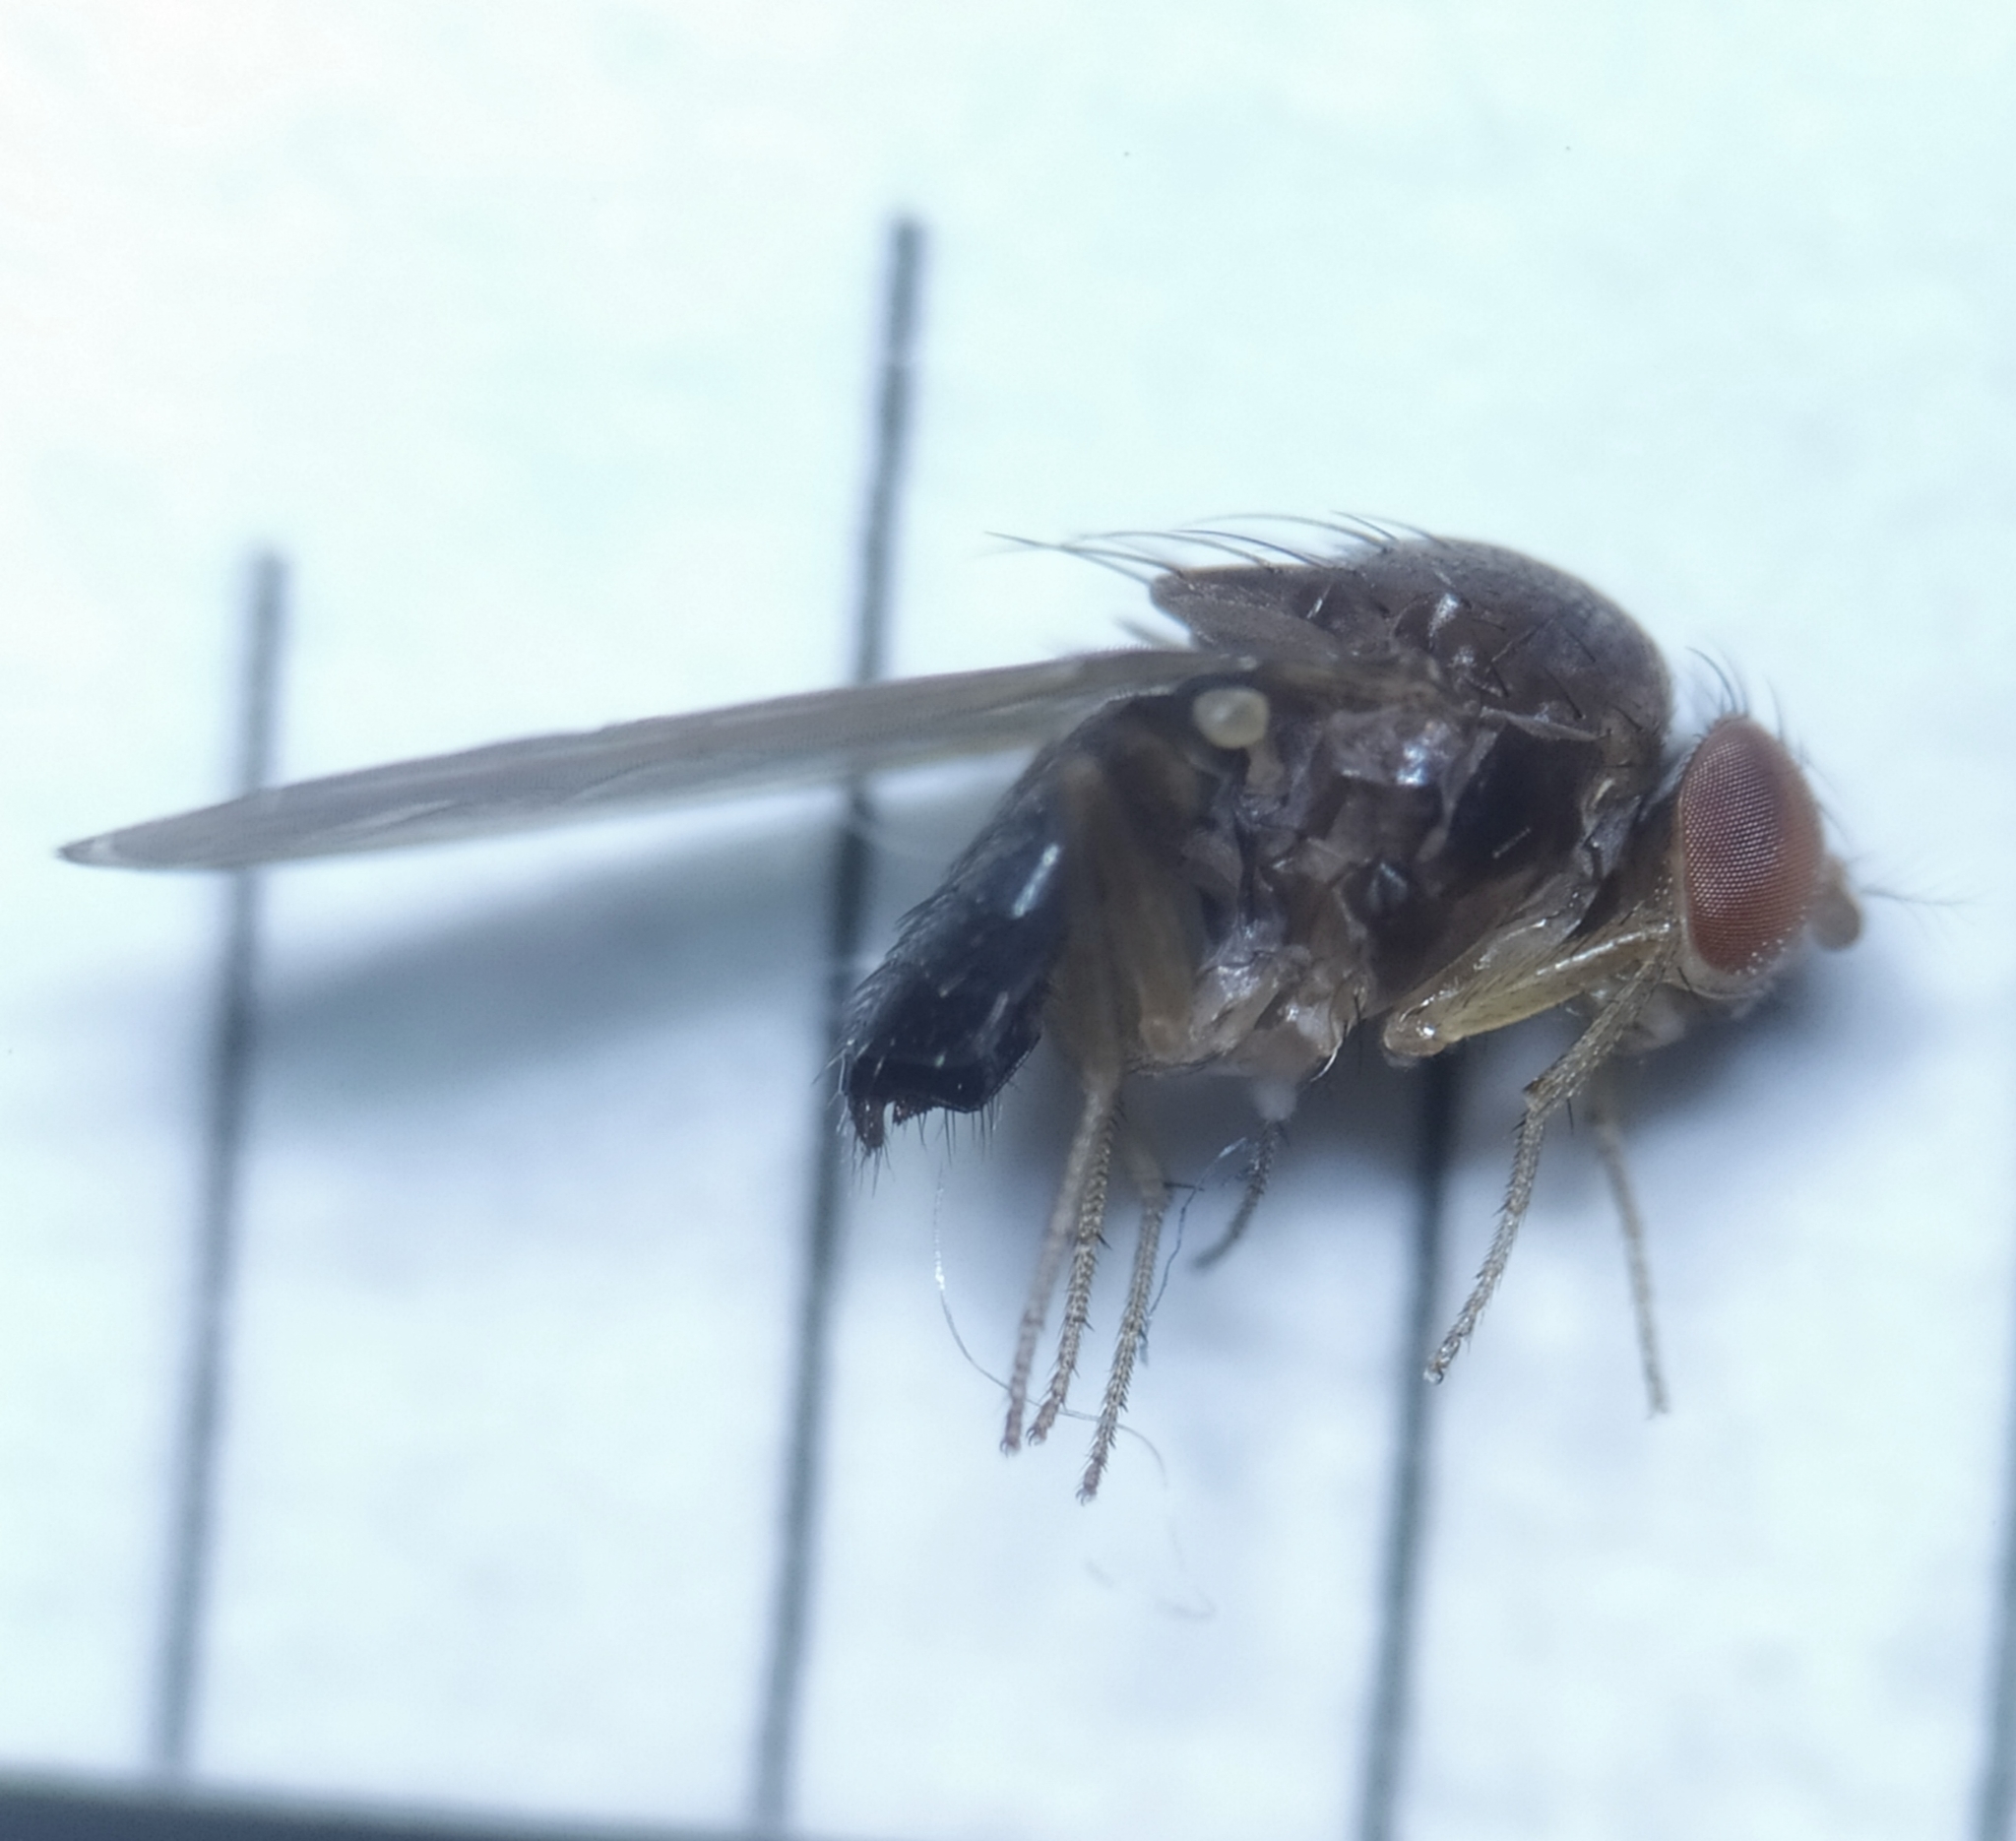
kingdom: Animalia
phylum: Arthropoda
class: Insecta
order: Diptera
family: Drosophilidae
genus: Drosophila
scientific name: Drosophila suzukii
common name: Spotted-wing drosophila
